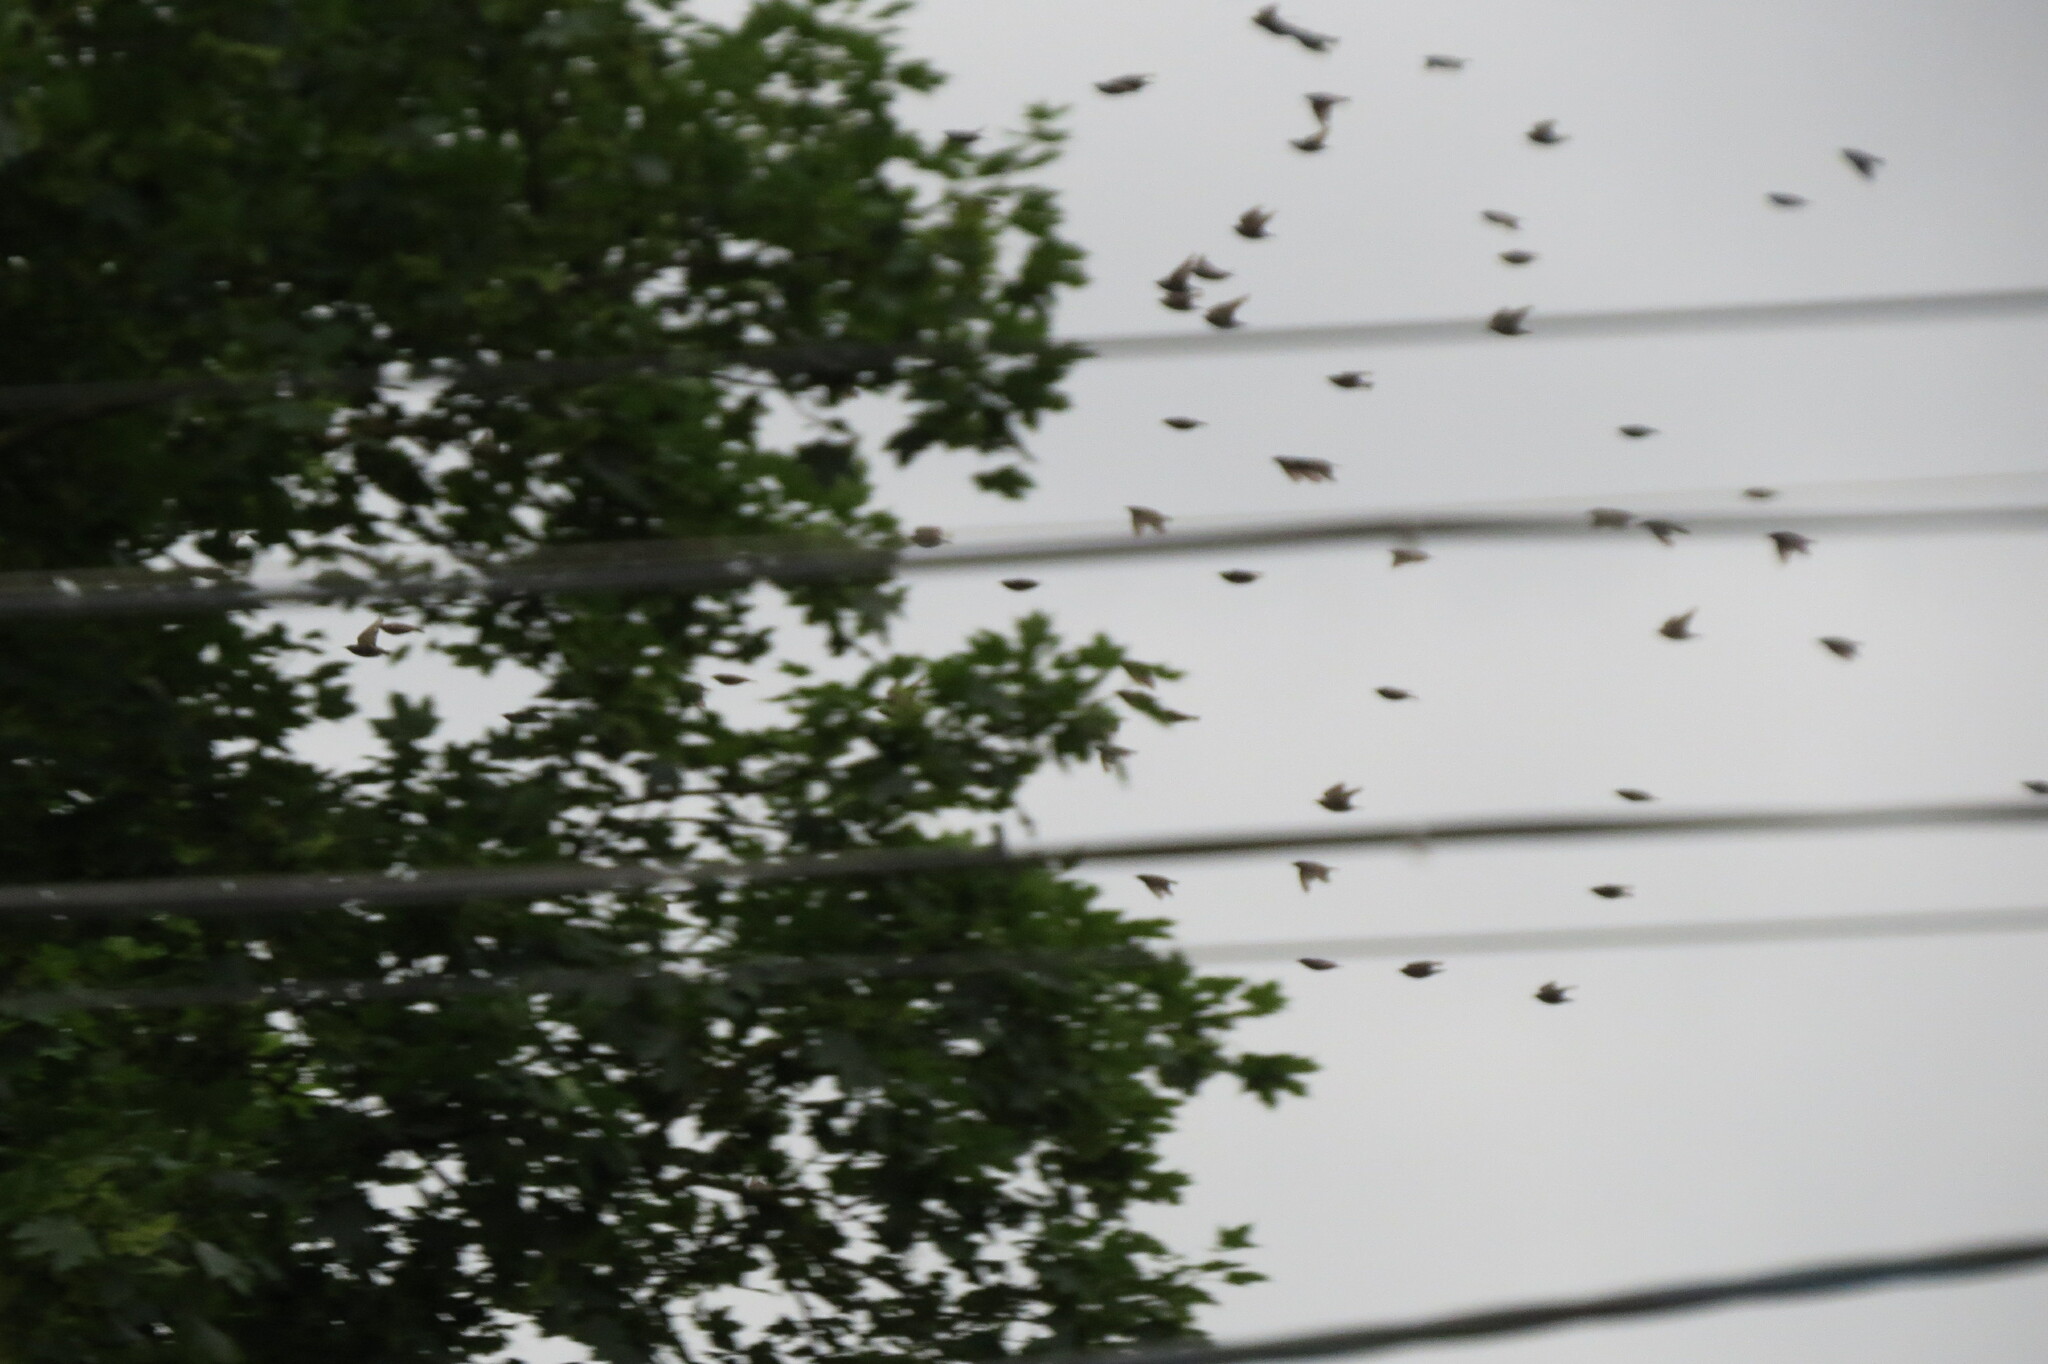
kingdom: Animalia
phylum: Chordata
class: Aves
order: Passeriformes
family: Sturnidae
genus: Sturnus
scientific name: Sturnus vulgaris
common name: Common starling
